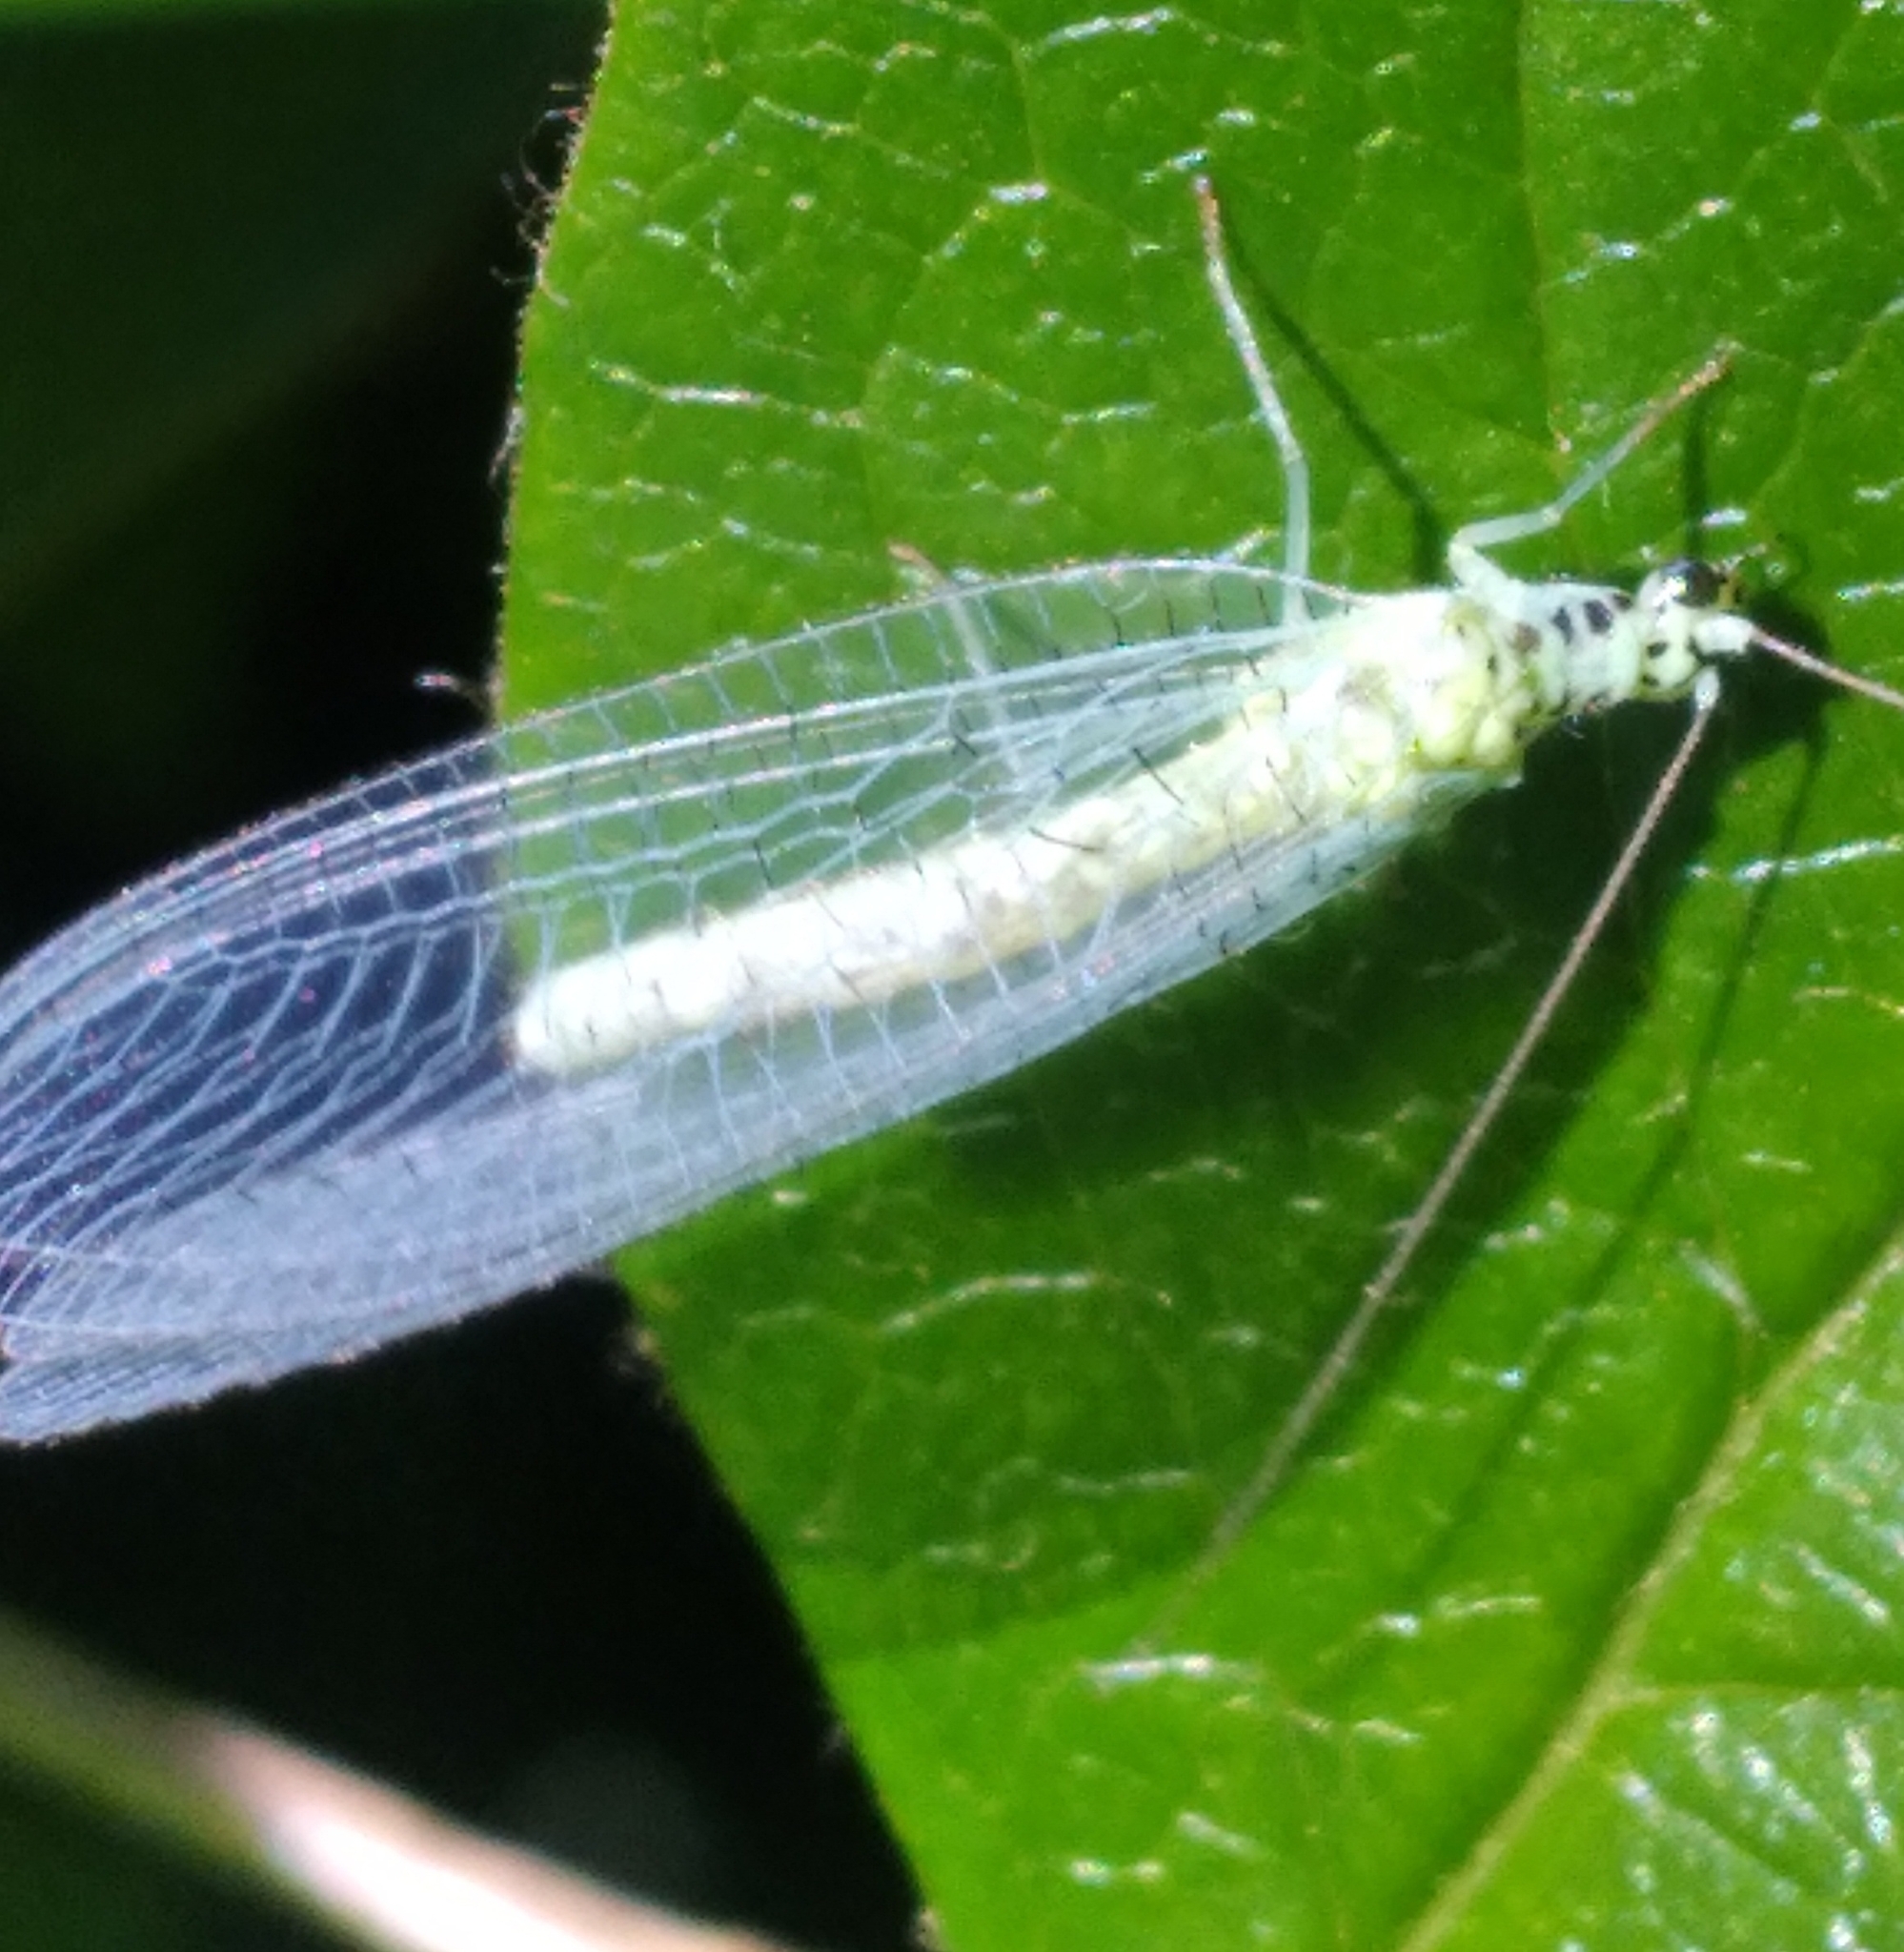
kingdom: Animalia
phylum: Arthropoda
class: Insecta
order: Neuroptera
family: Chrysopidae
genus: Chrysopa
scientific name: Chrysopa chi
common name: X-marked green lacewing
